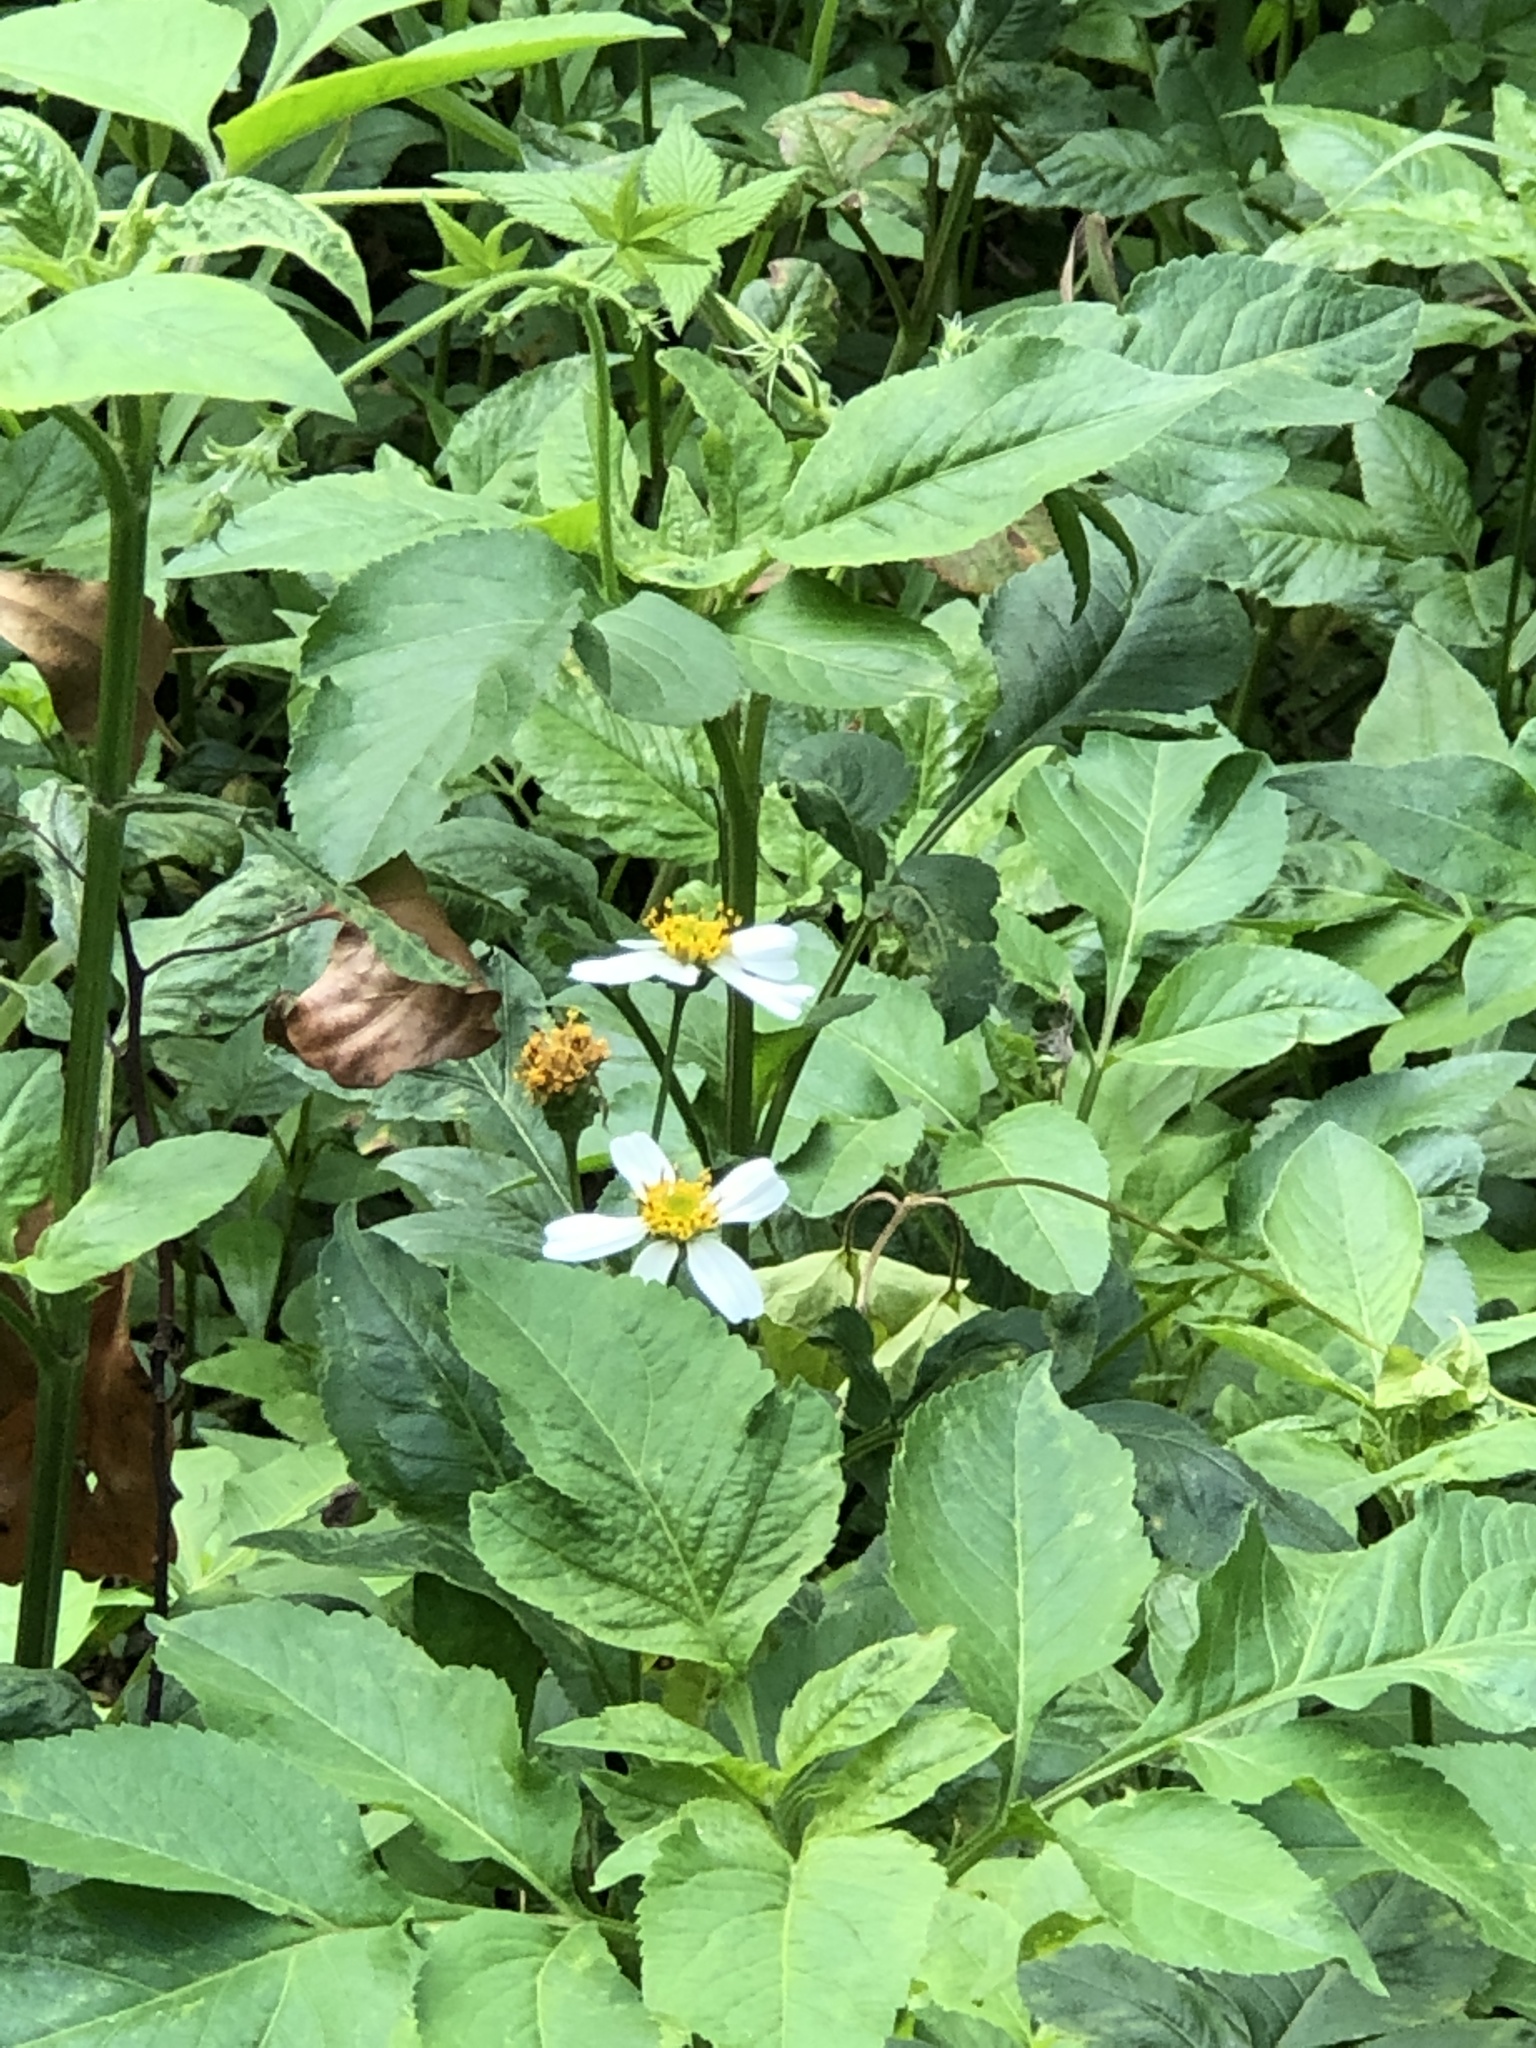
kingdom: Plantae
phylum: Tracheophyta
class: Magnoliopsida
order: Asterales
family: Asteraceae
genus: Bidens
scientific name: Bidens alba
